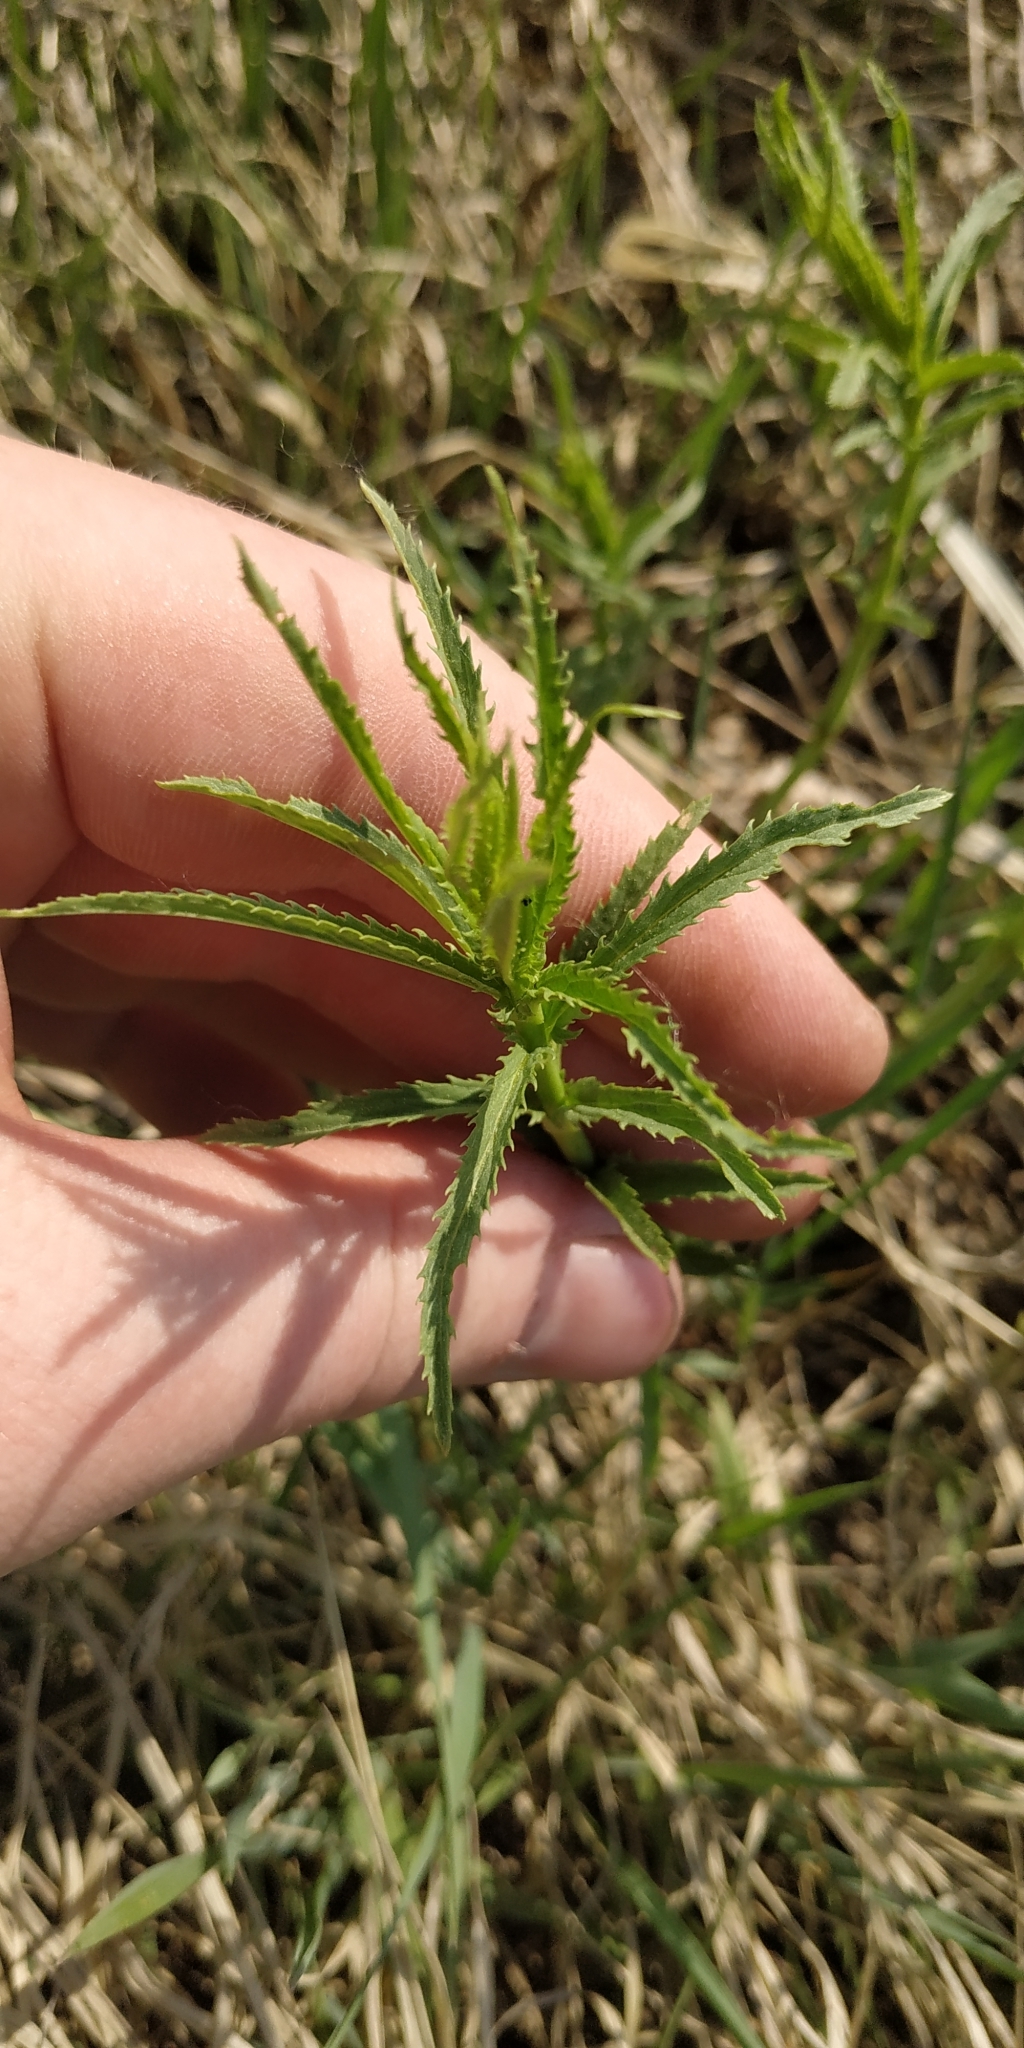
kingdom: Plantae
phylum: Tracheophyta
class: Magnoliopsida
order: Lamiales
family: Plantaginaceae
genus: Veronica
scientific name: Veronica longifolia
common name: Garden speedwell
